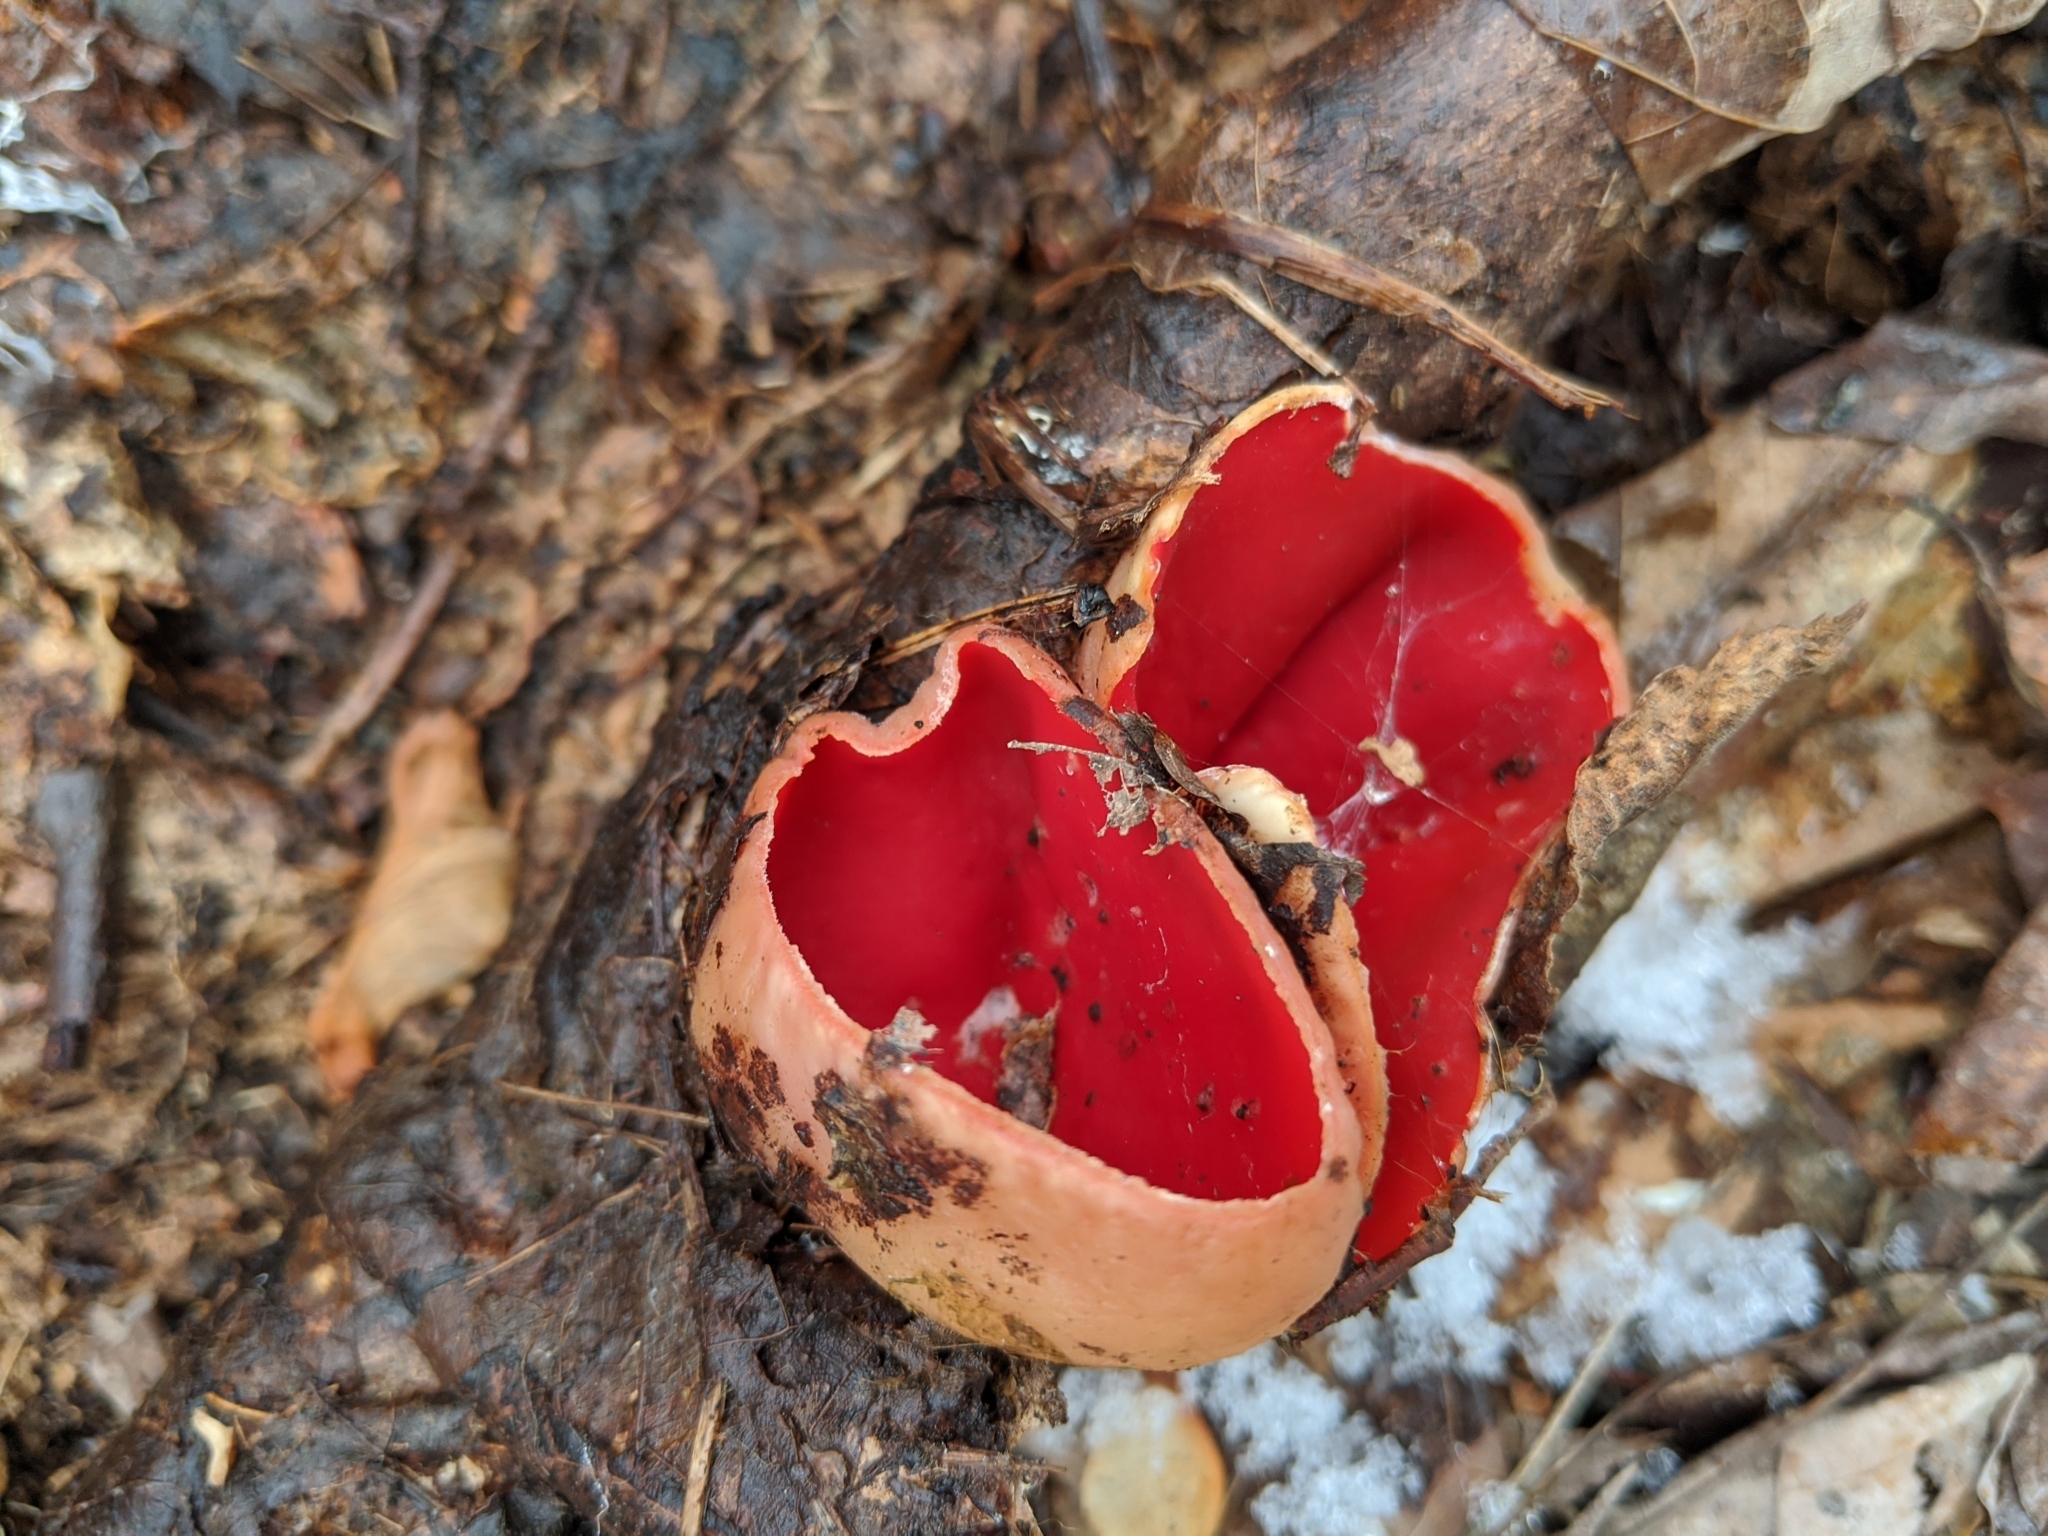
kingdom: Fungi
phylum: Ascomycota
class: Pezizomycetes
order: Pezizales
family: Sarcoscyphaceae
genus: Sarcoscypha
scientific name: Sarcoscypha austriaca
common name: Scarlet elfcup
